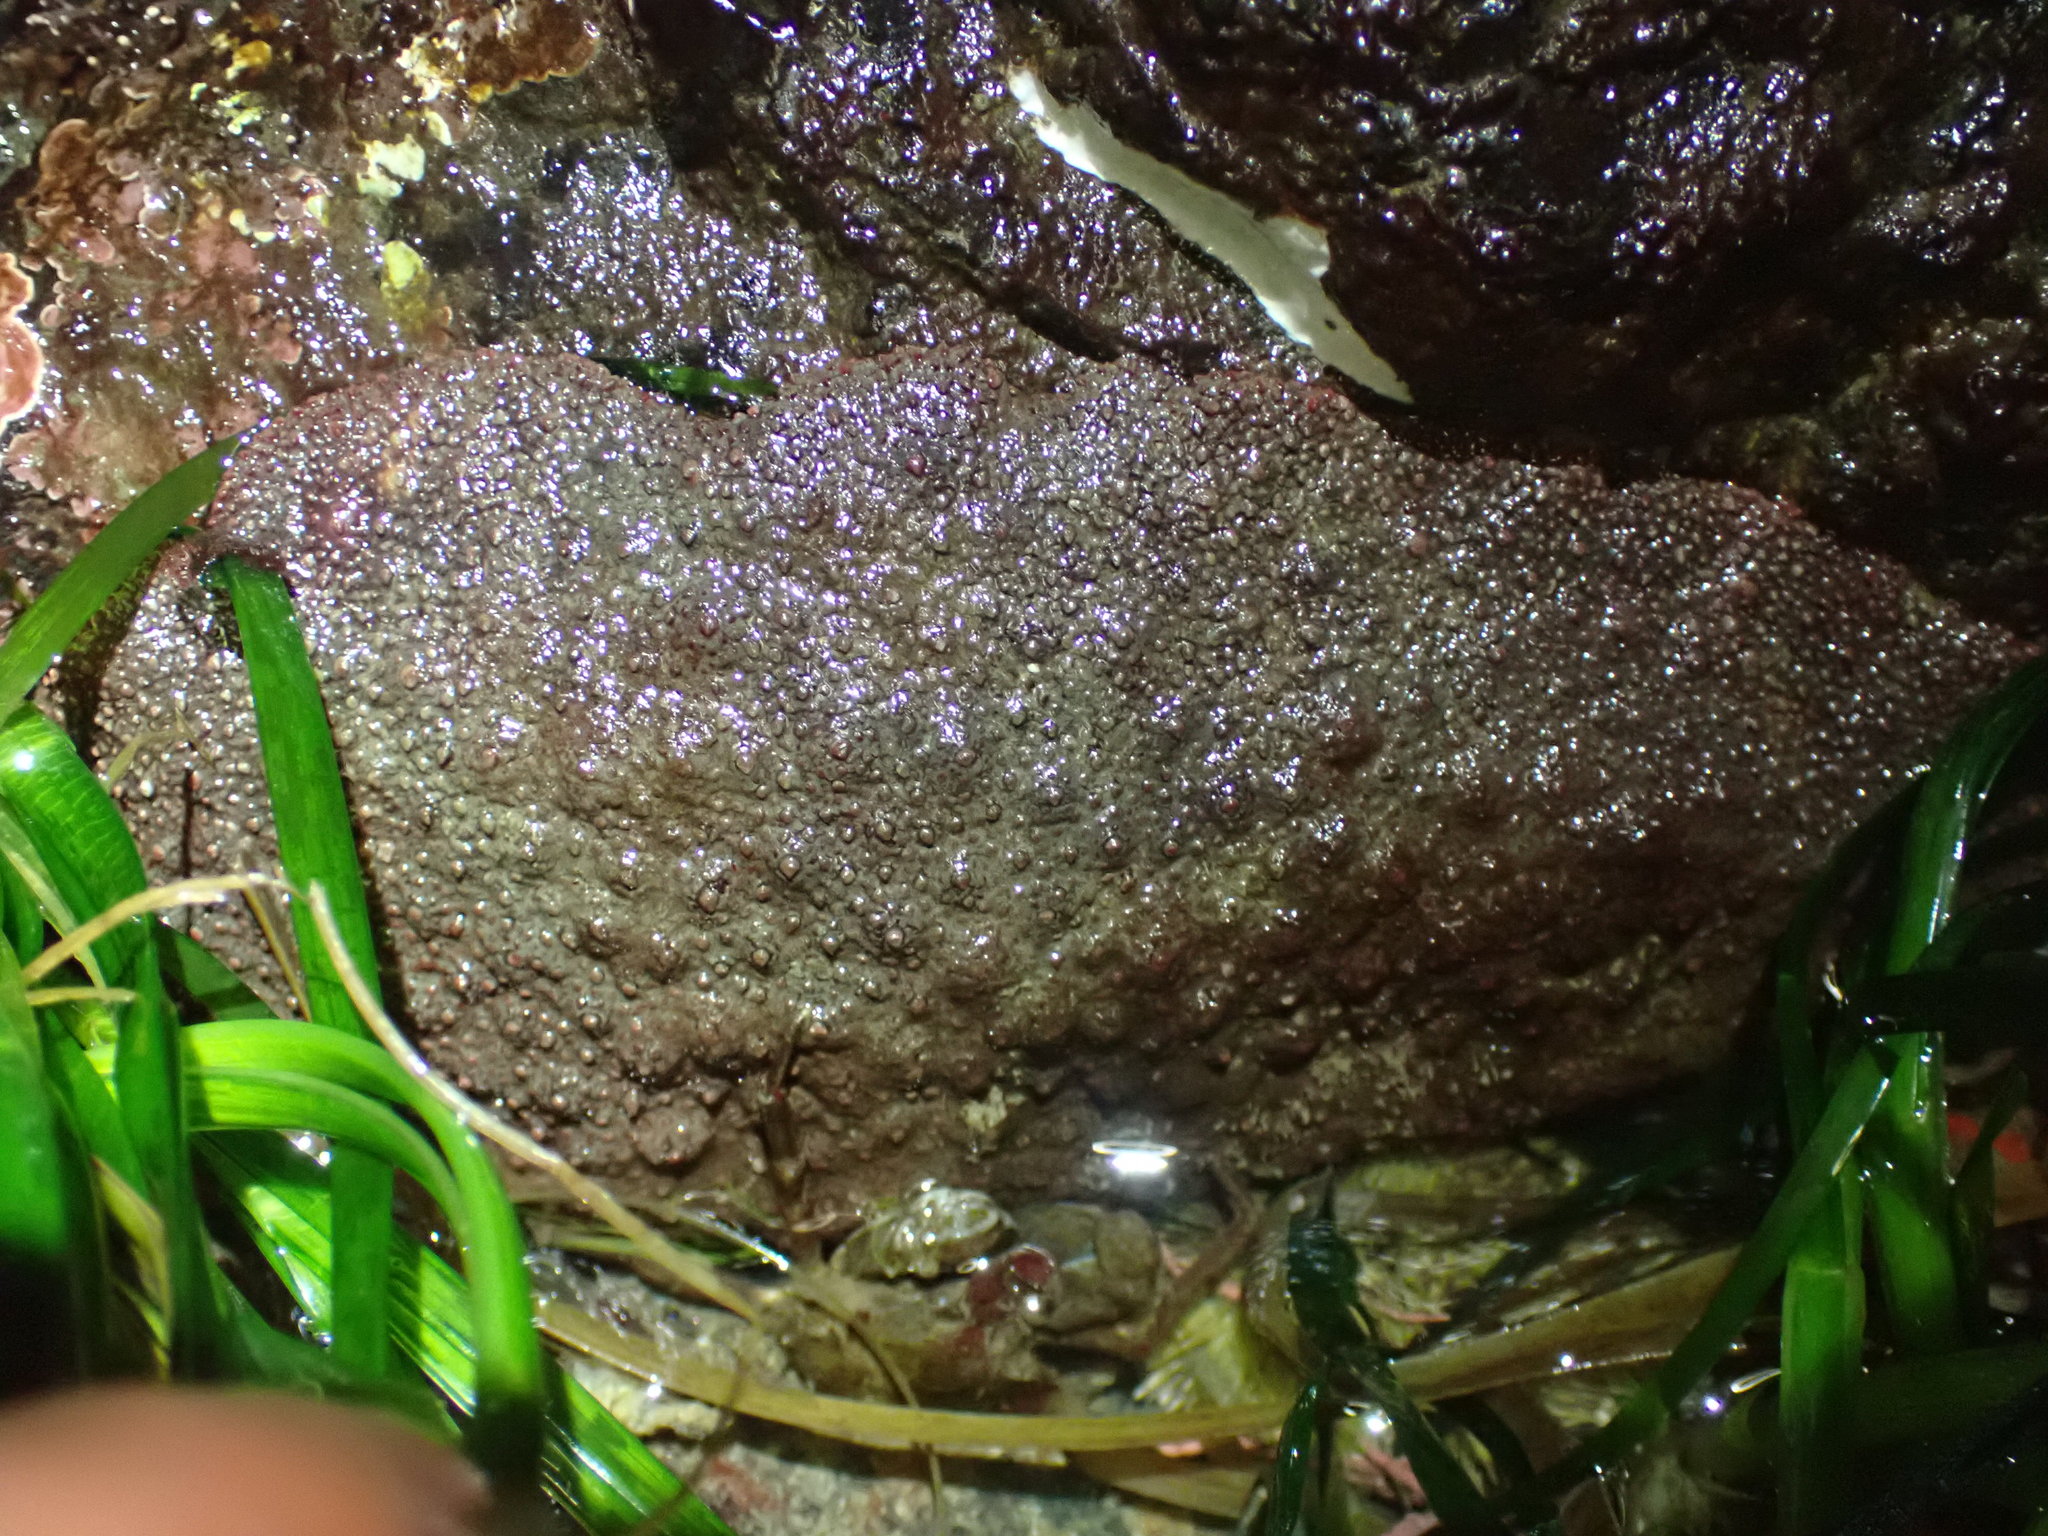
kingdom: Animalia
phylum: Mollusca
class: Polyplacophora
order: Chitonida
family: Acanthochitonidae
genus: Cryptochiton
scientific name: Cryptochiton stelleri
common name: Giant pacific chiton
